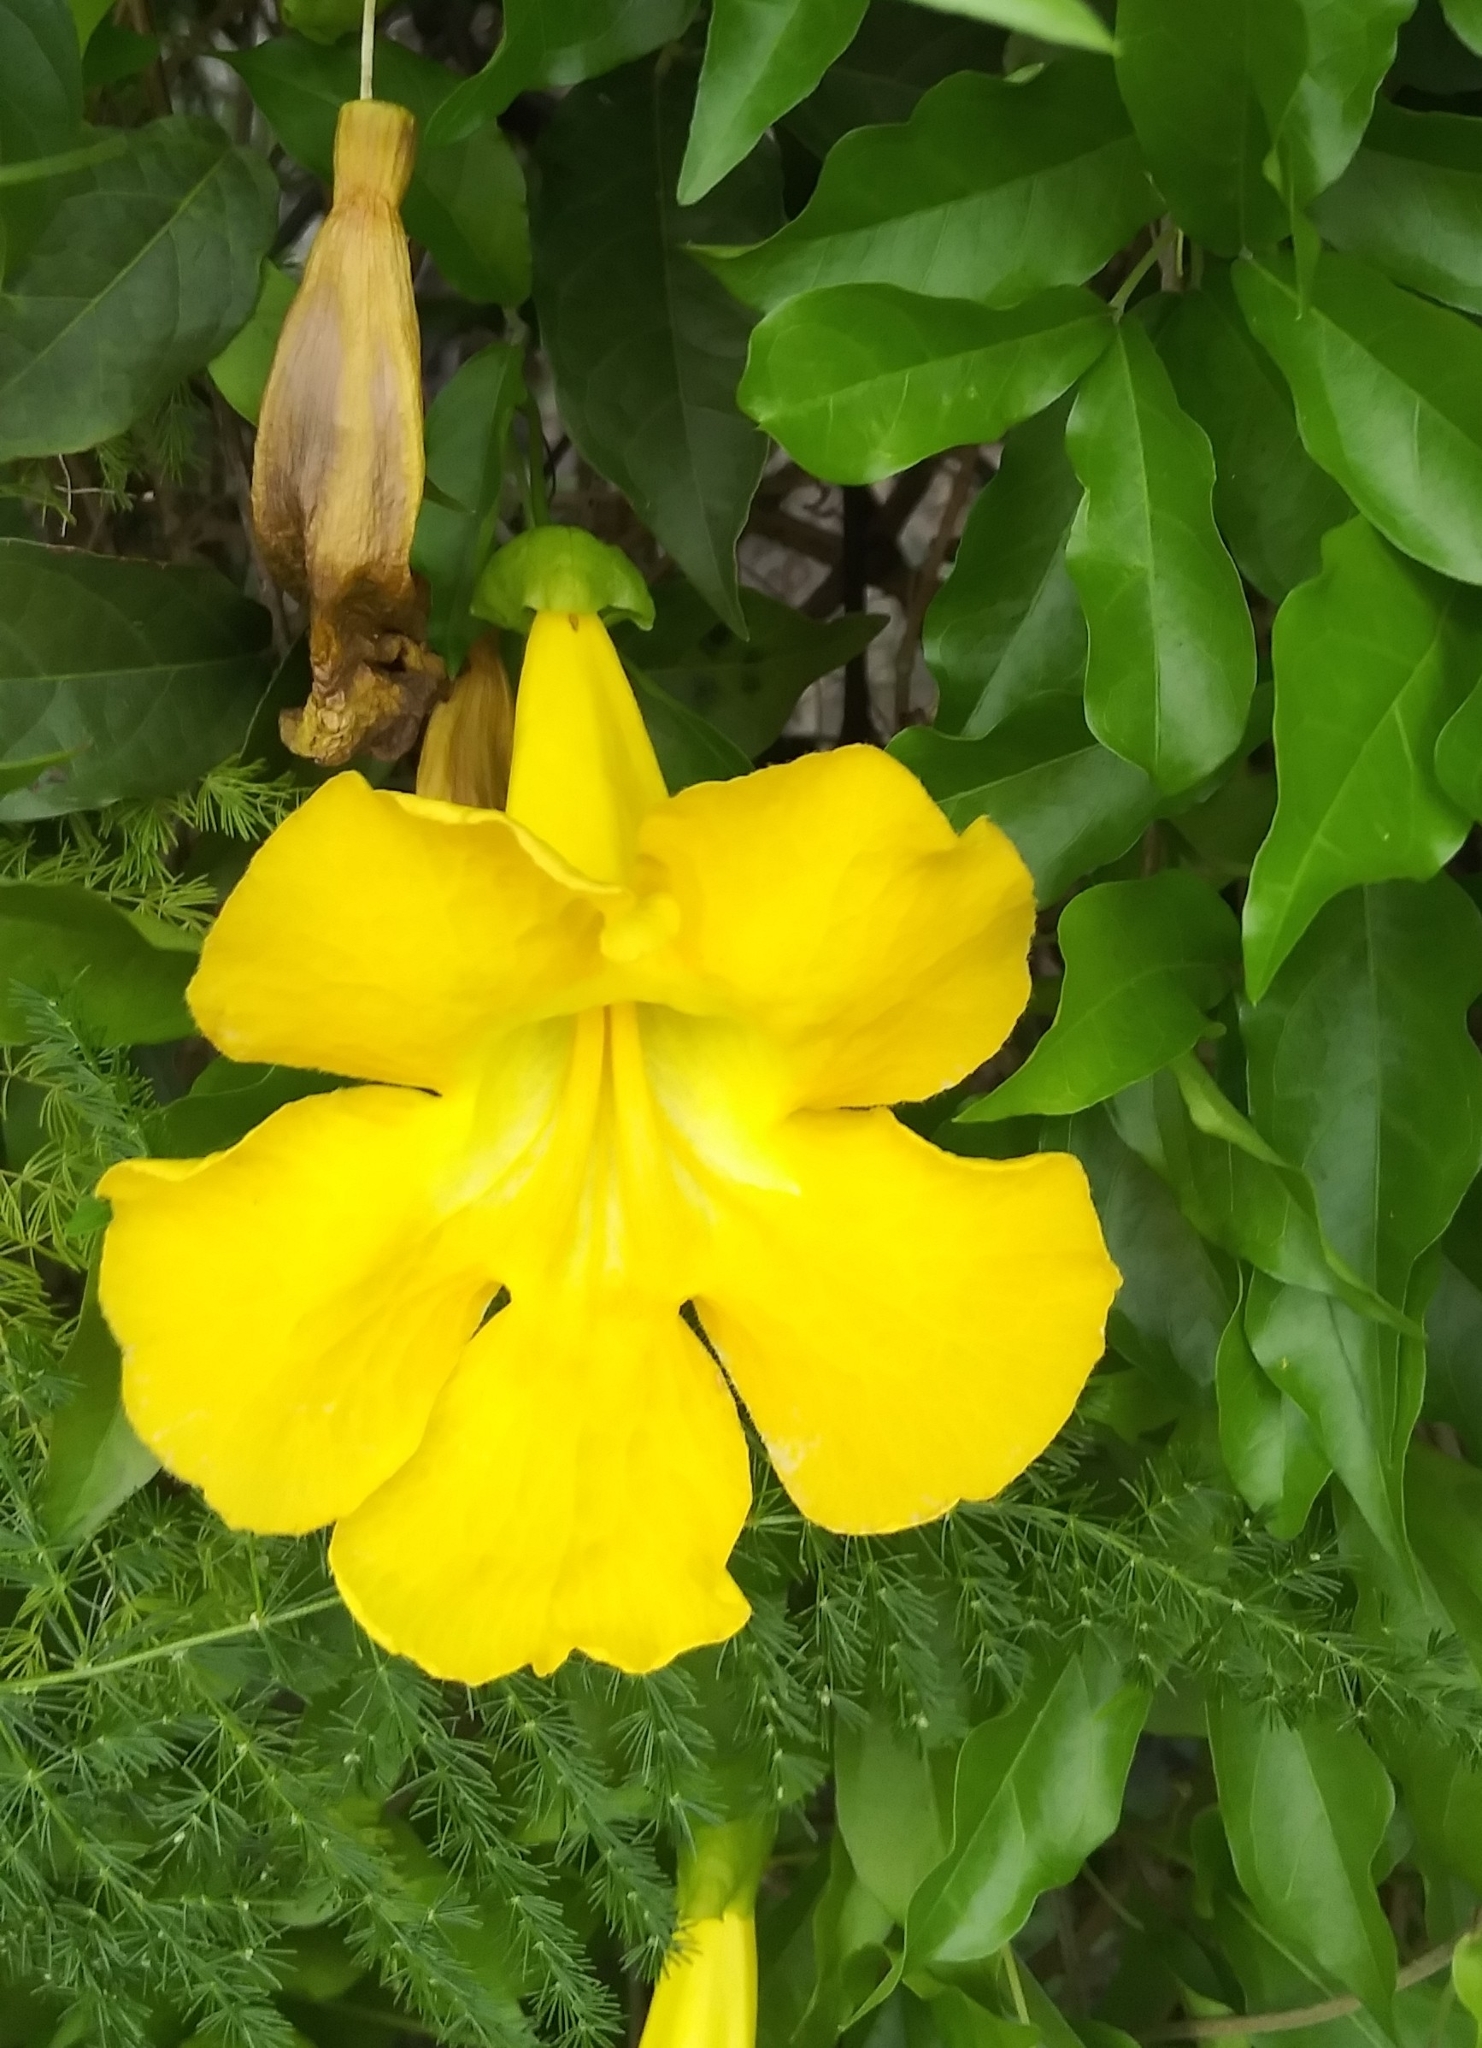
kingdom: Plantae
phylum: Tracheophyta
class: Magnoliopsida
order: Lamiales
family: Bignoniaceae
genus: Dolichandra
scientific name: Dolichandra unguis-cati
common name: Catclaw vine
